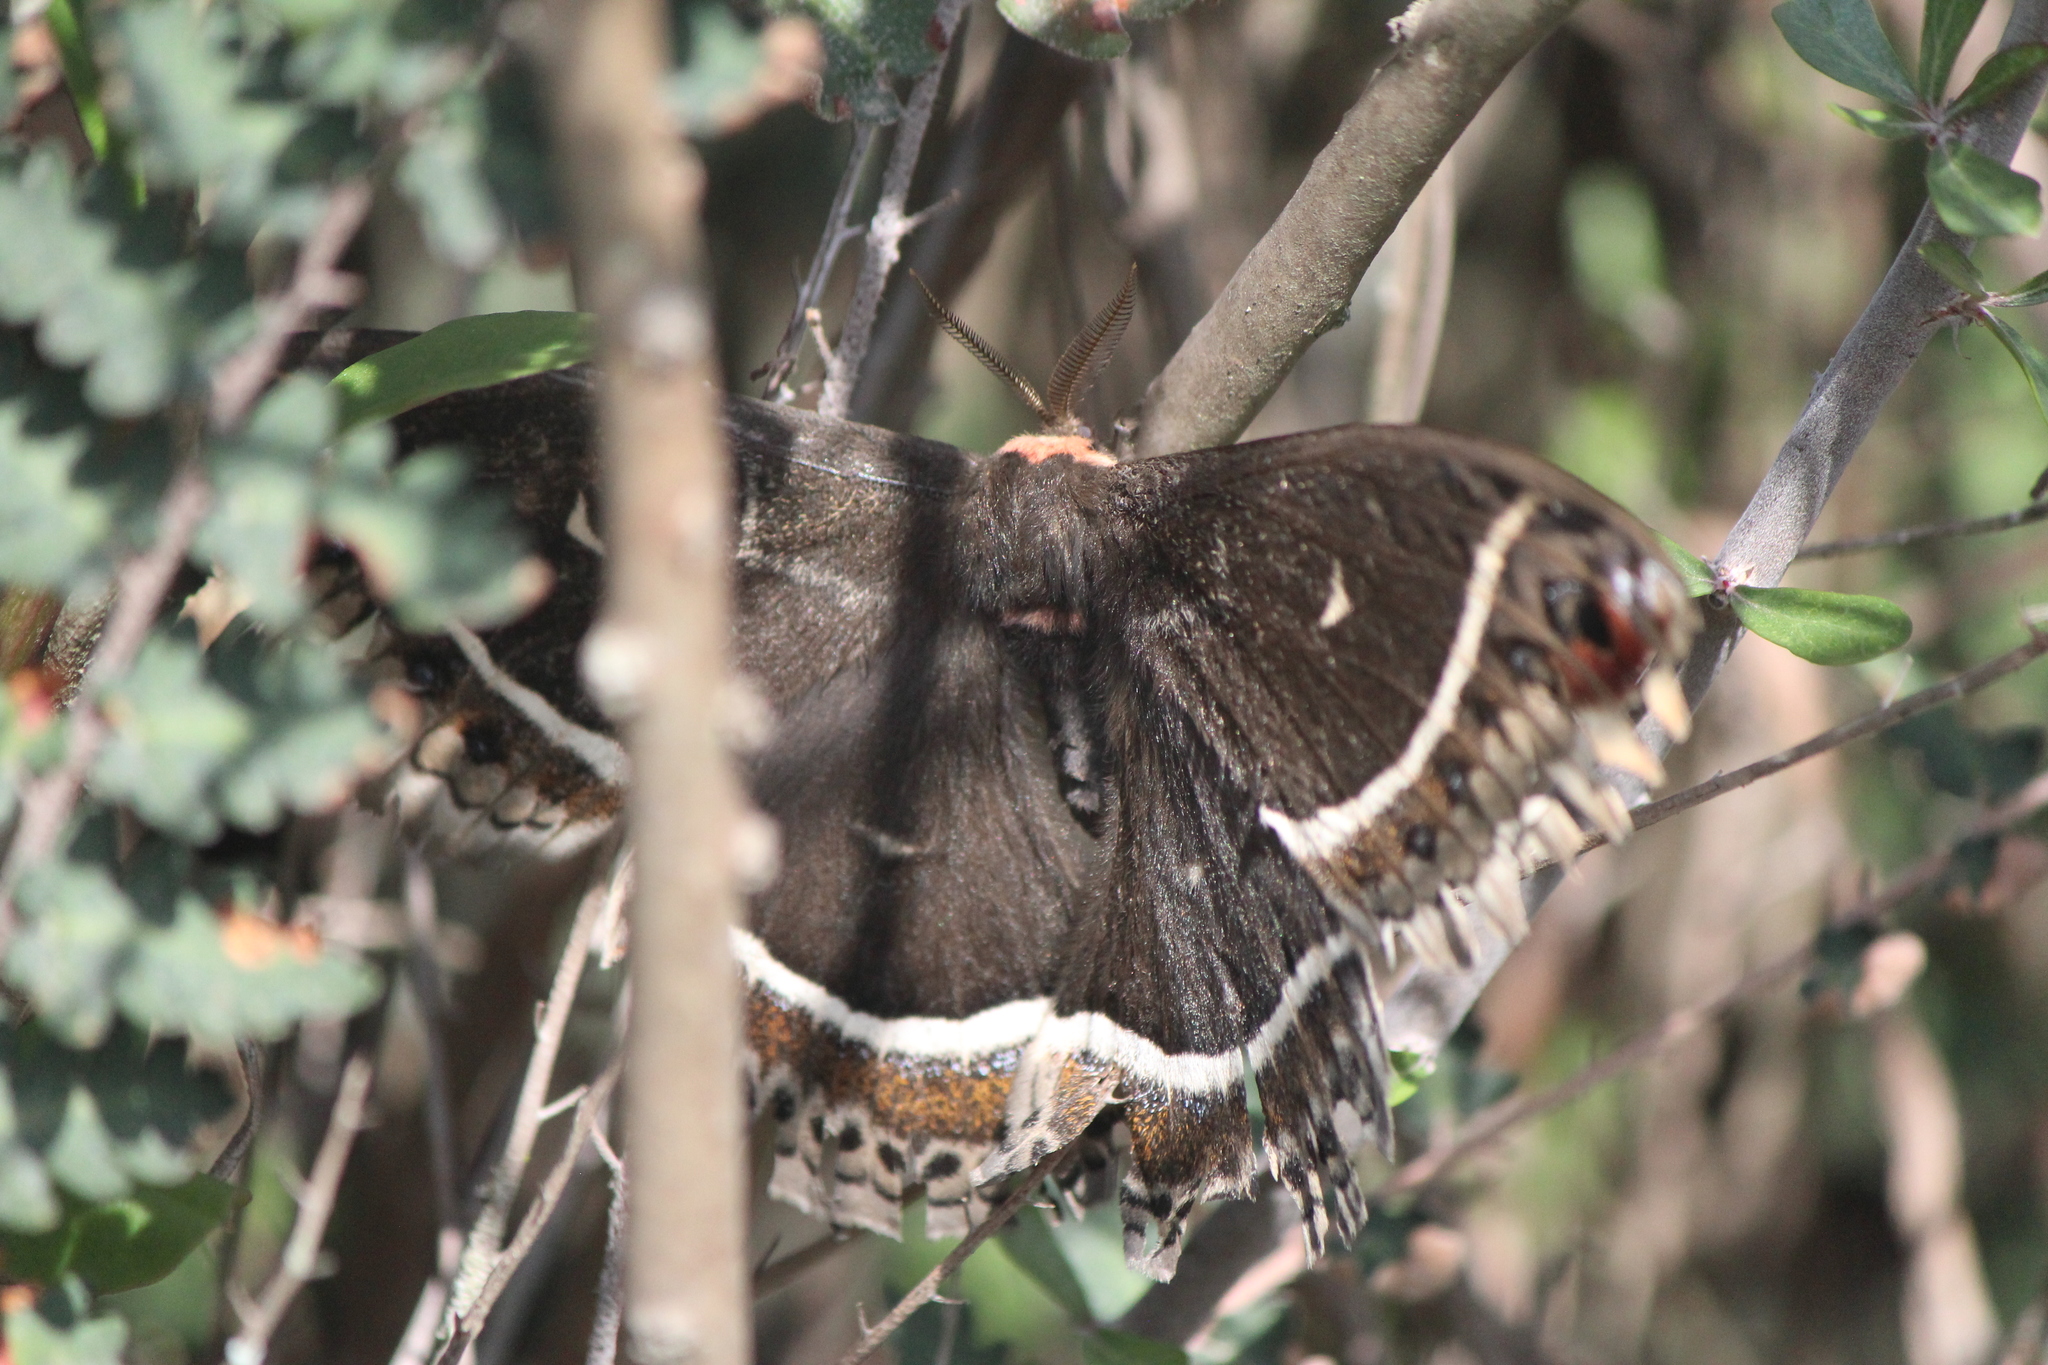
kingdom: Animalia
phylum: Arthropoda
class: Insecta
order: Lepidoptera
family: Saturniidae
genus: Eupackardia
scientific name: Eupackardia calleta
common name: Calleta silkmoth
